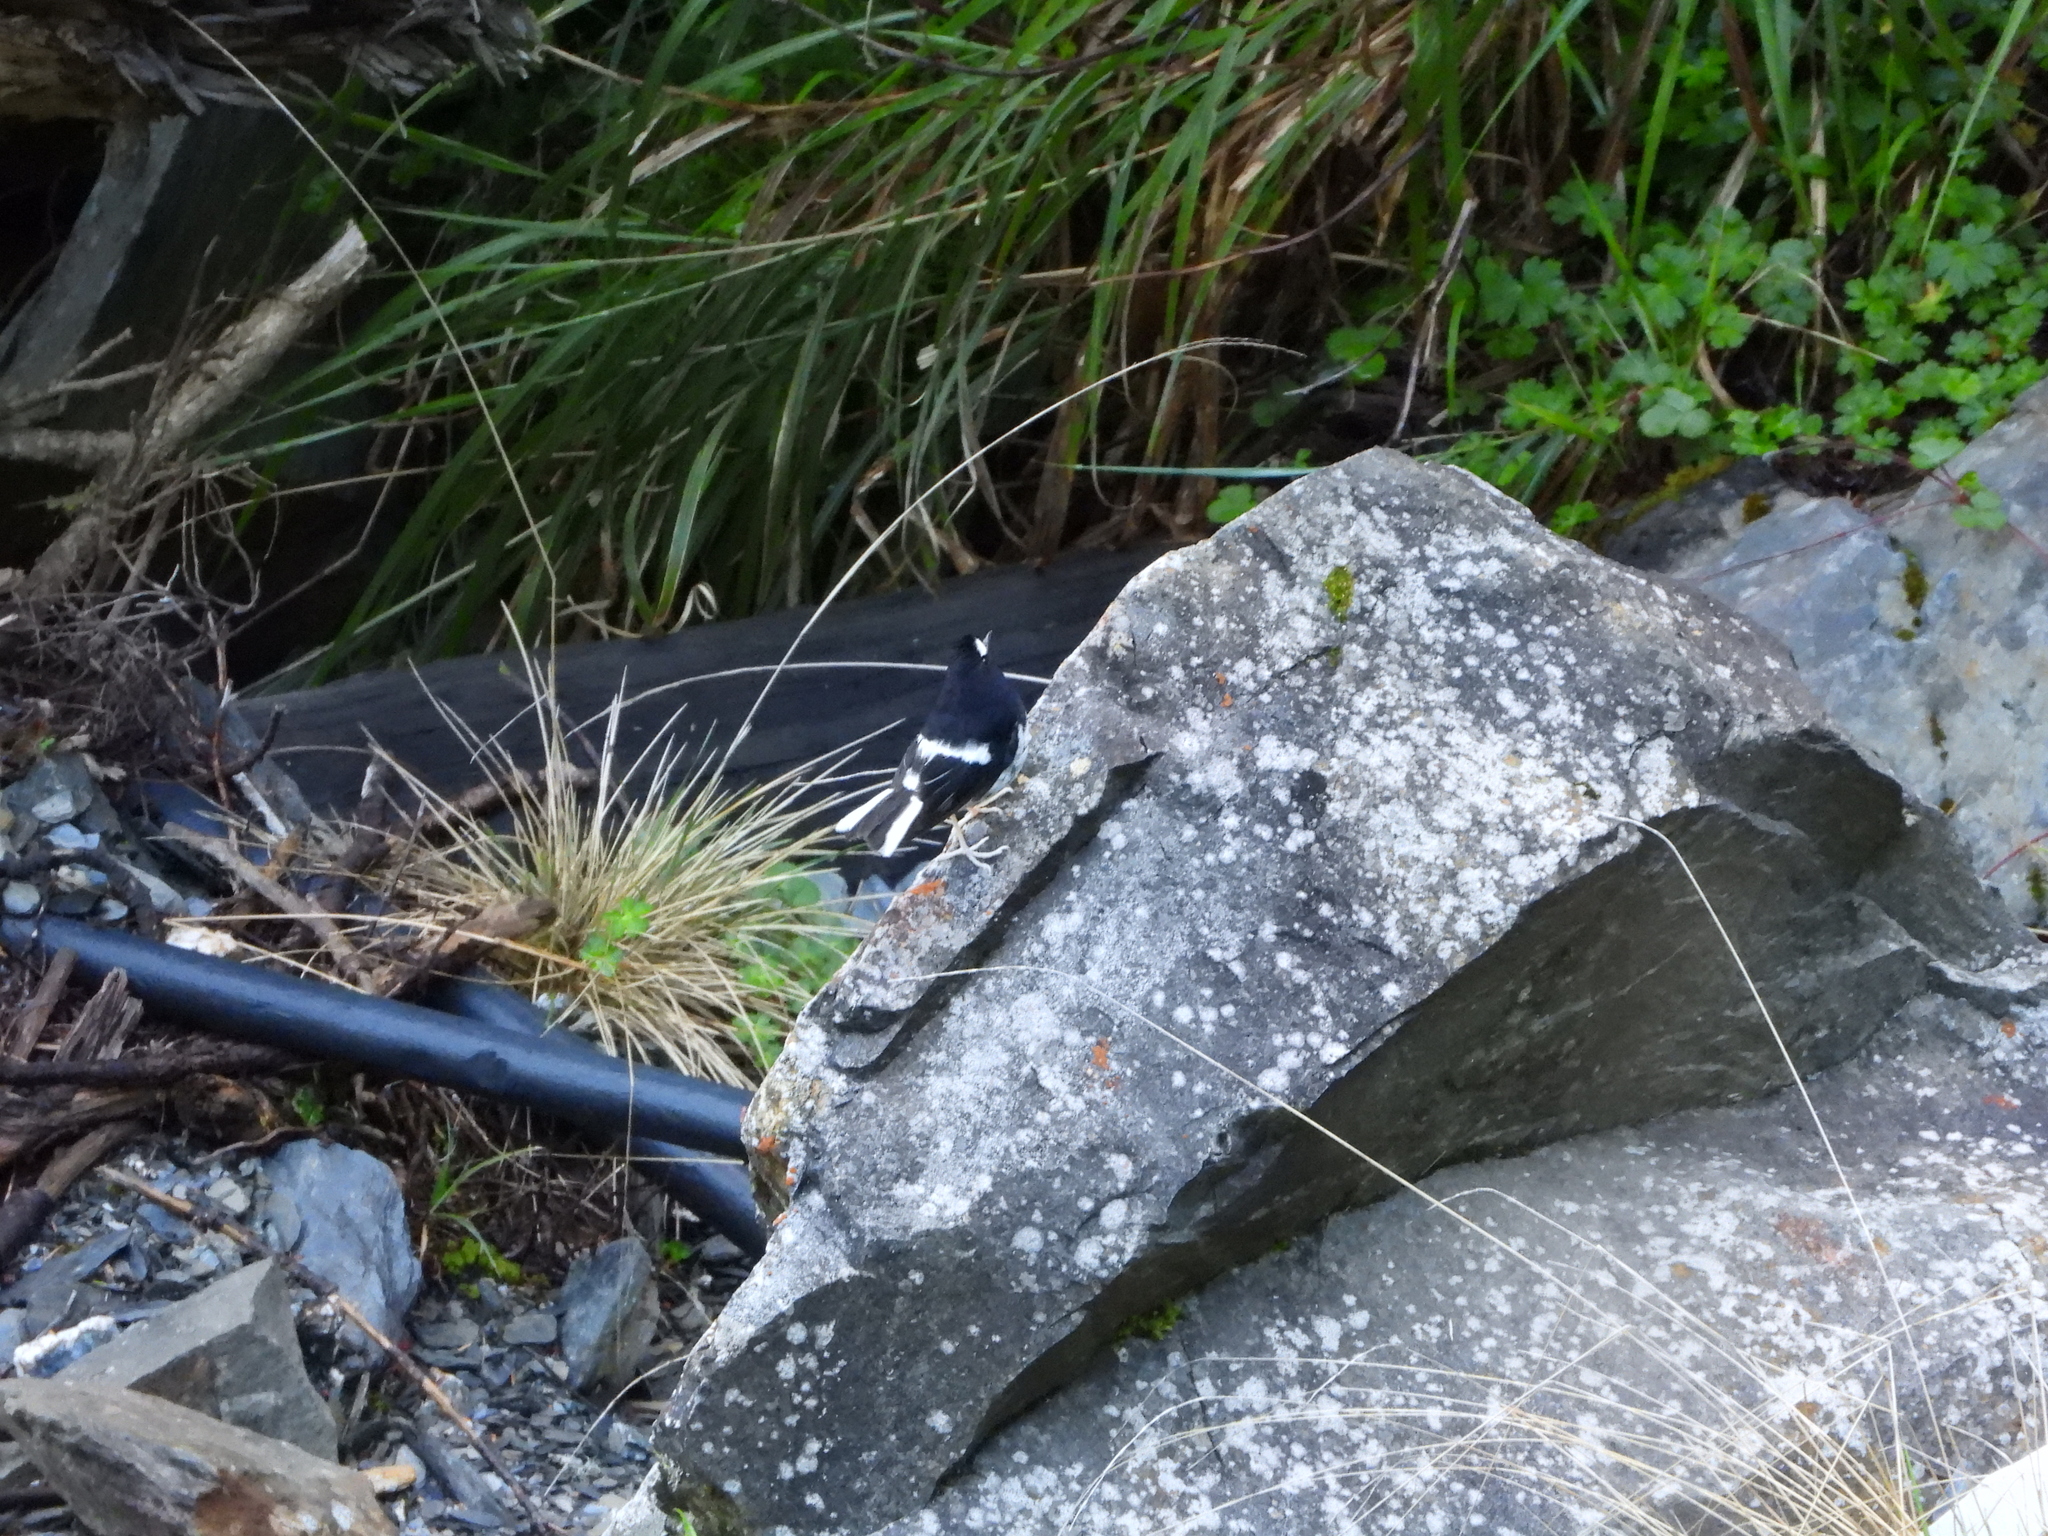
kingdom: Animalia
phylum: Chordata
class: Aves
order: Passeriformes
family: Muscicapidae
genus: Enicurus
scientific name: Enicurus scouleri
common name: Little forktail
